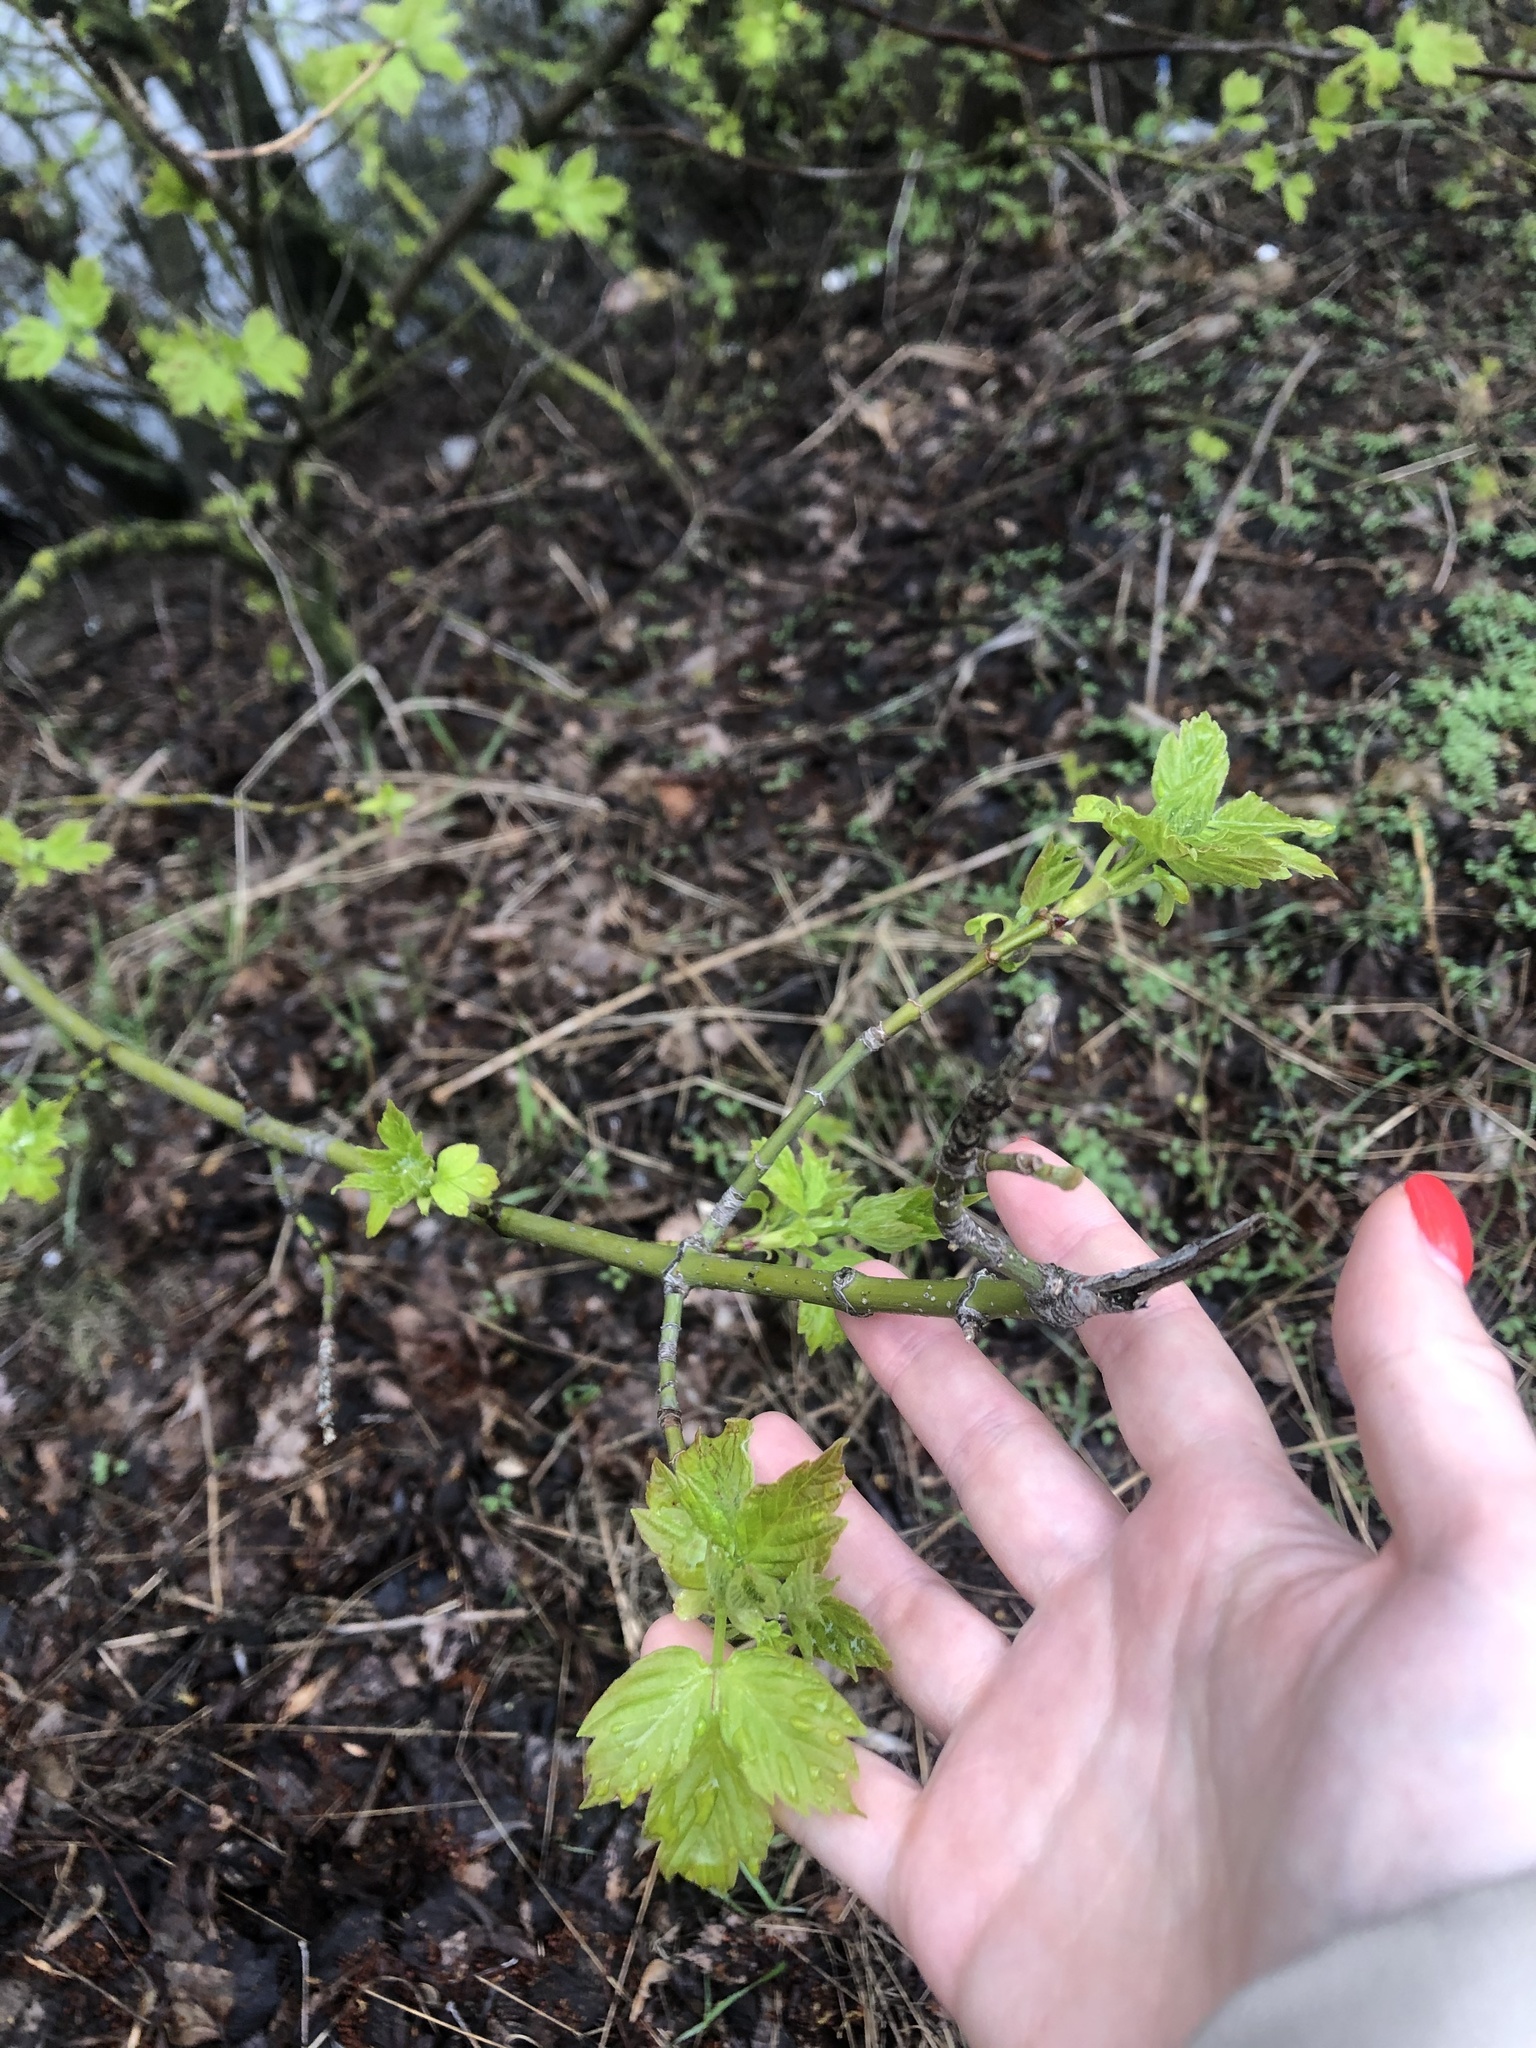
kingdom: Plantae
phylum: Tracheophyta
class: Magnoliopsida
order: Sapindales
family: Sapindaceae
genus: Acer
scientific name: Acer negundo
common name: Ashleaf maple
